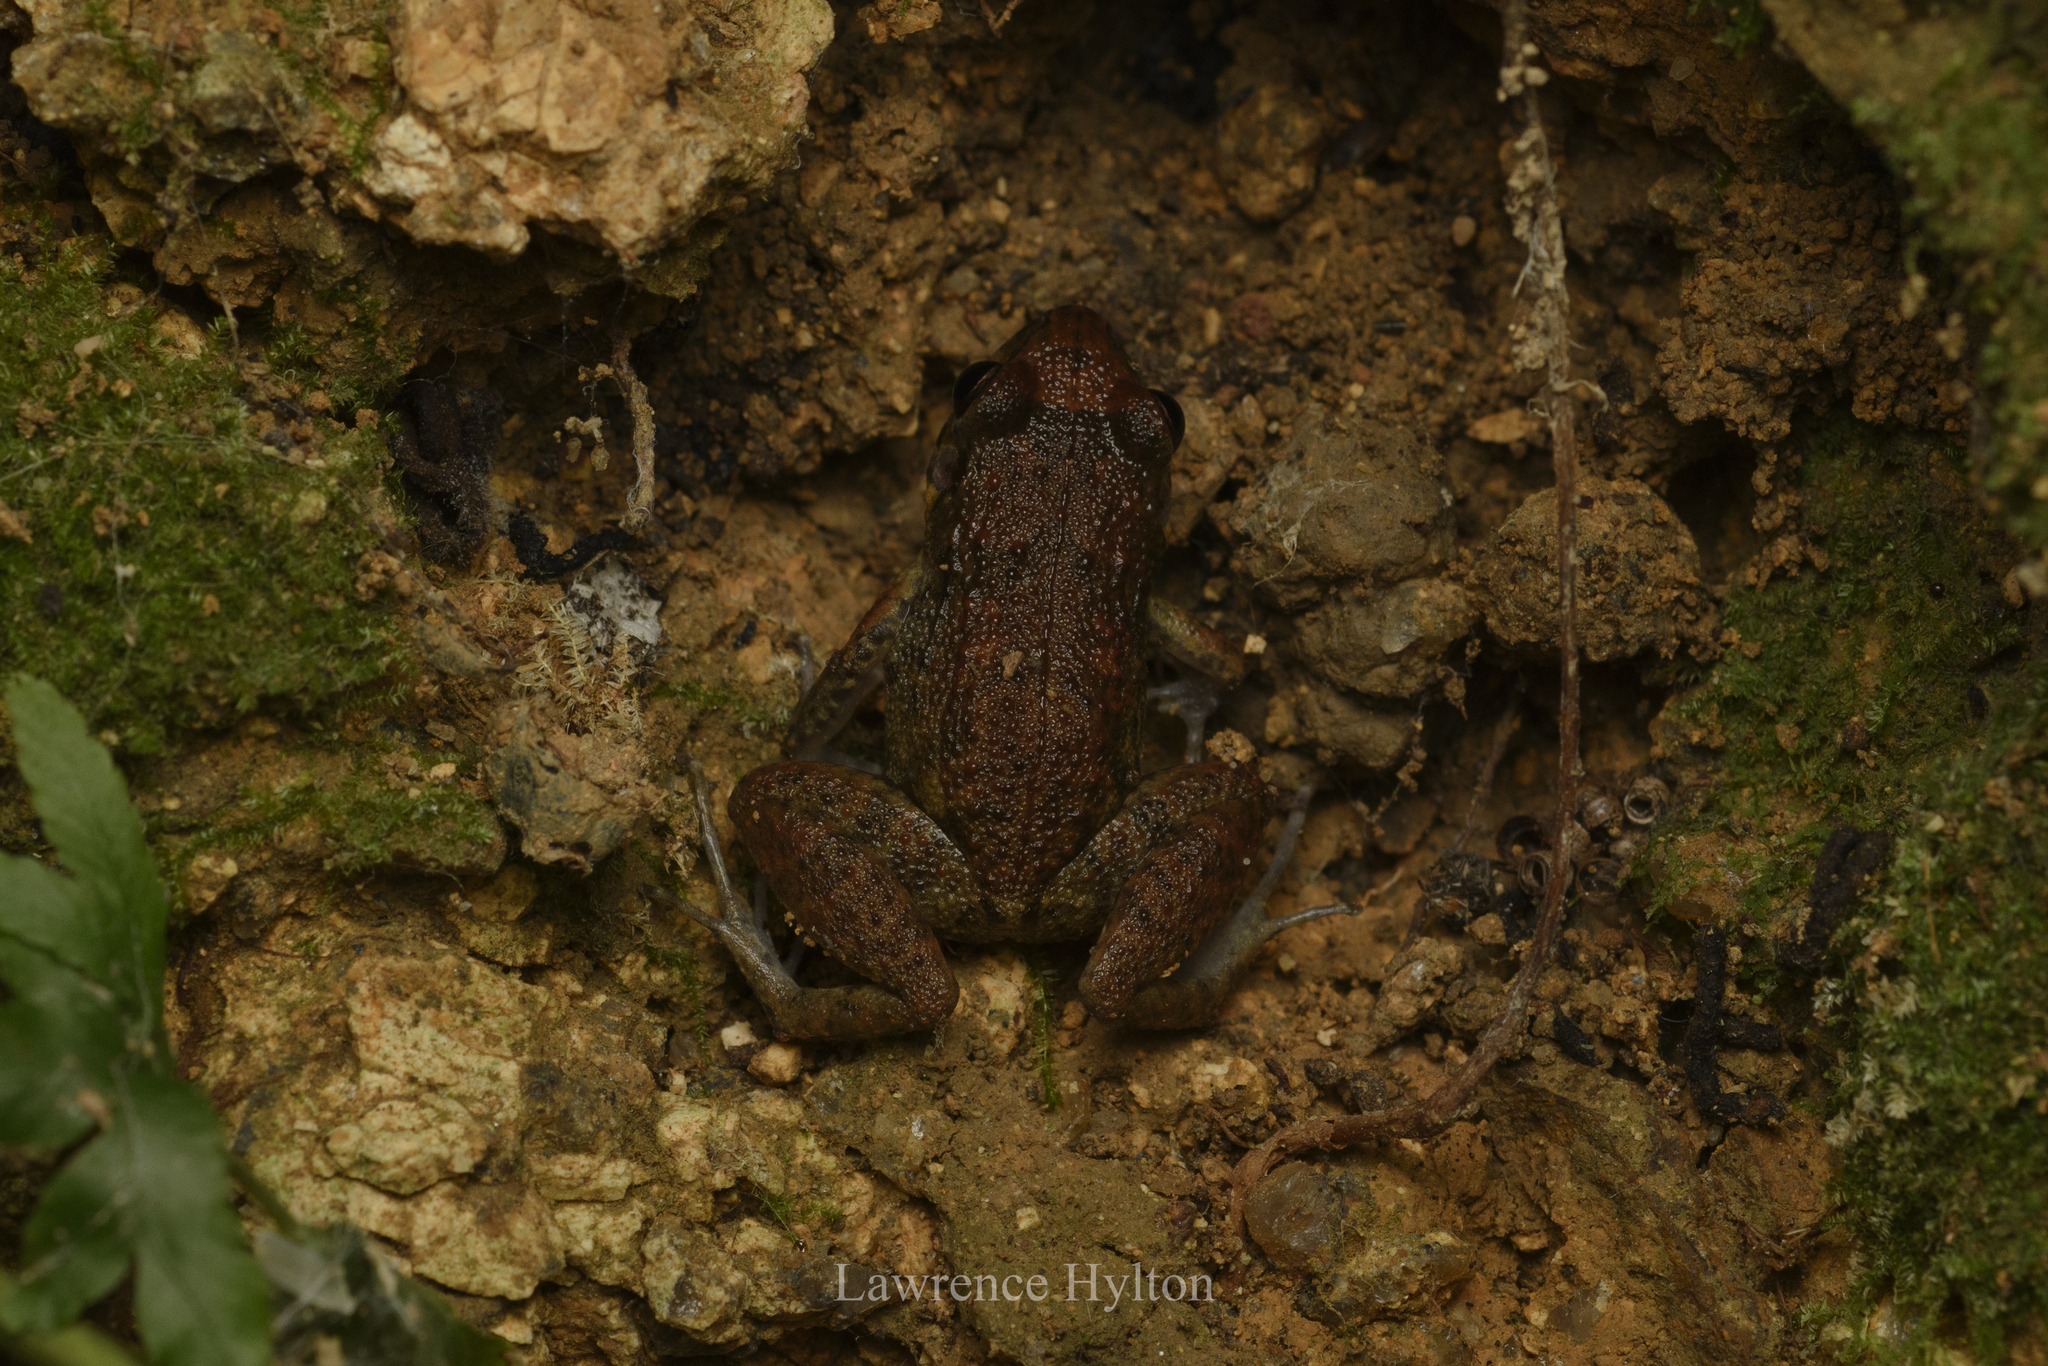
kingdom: Animalia
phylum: Chordata
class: Amphibia
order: Anura
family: Eleutherodactylidae
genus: Eleutherodactylus
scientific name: Eleutherodactylus planirostris
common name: Greenhouse frog
